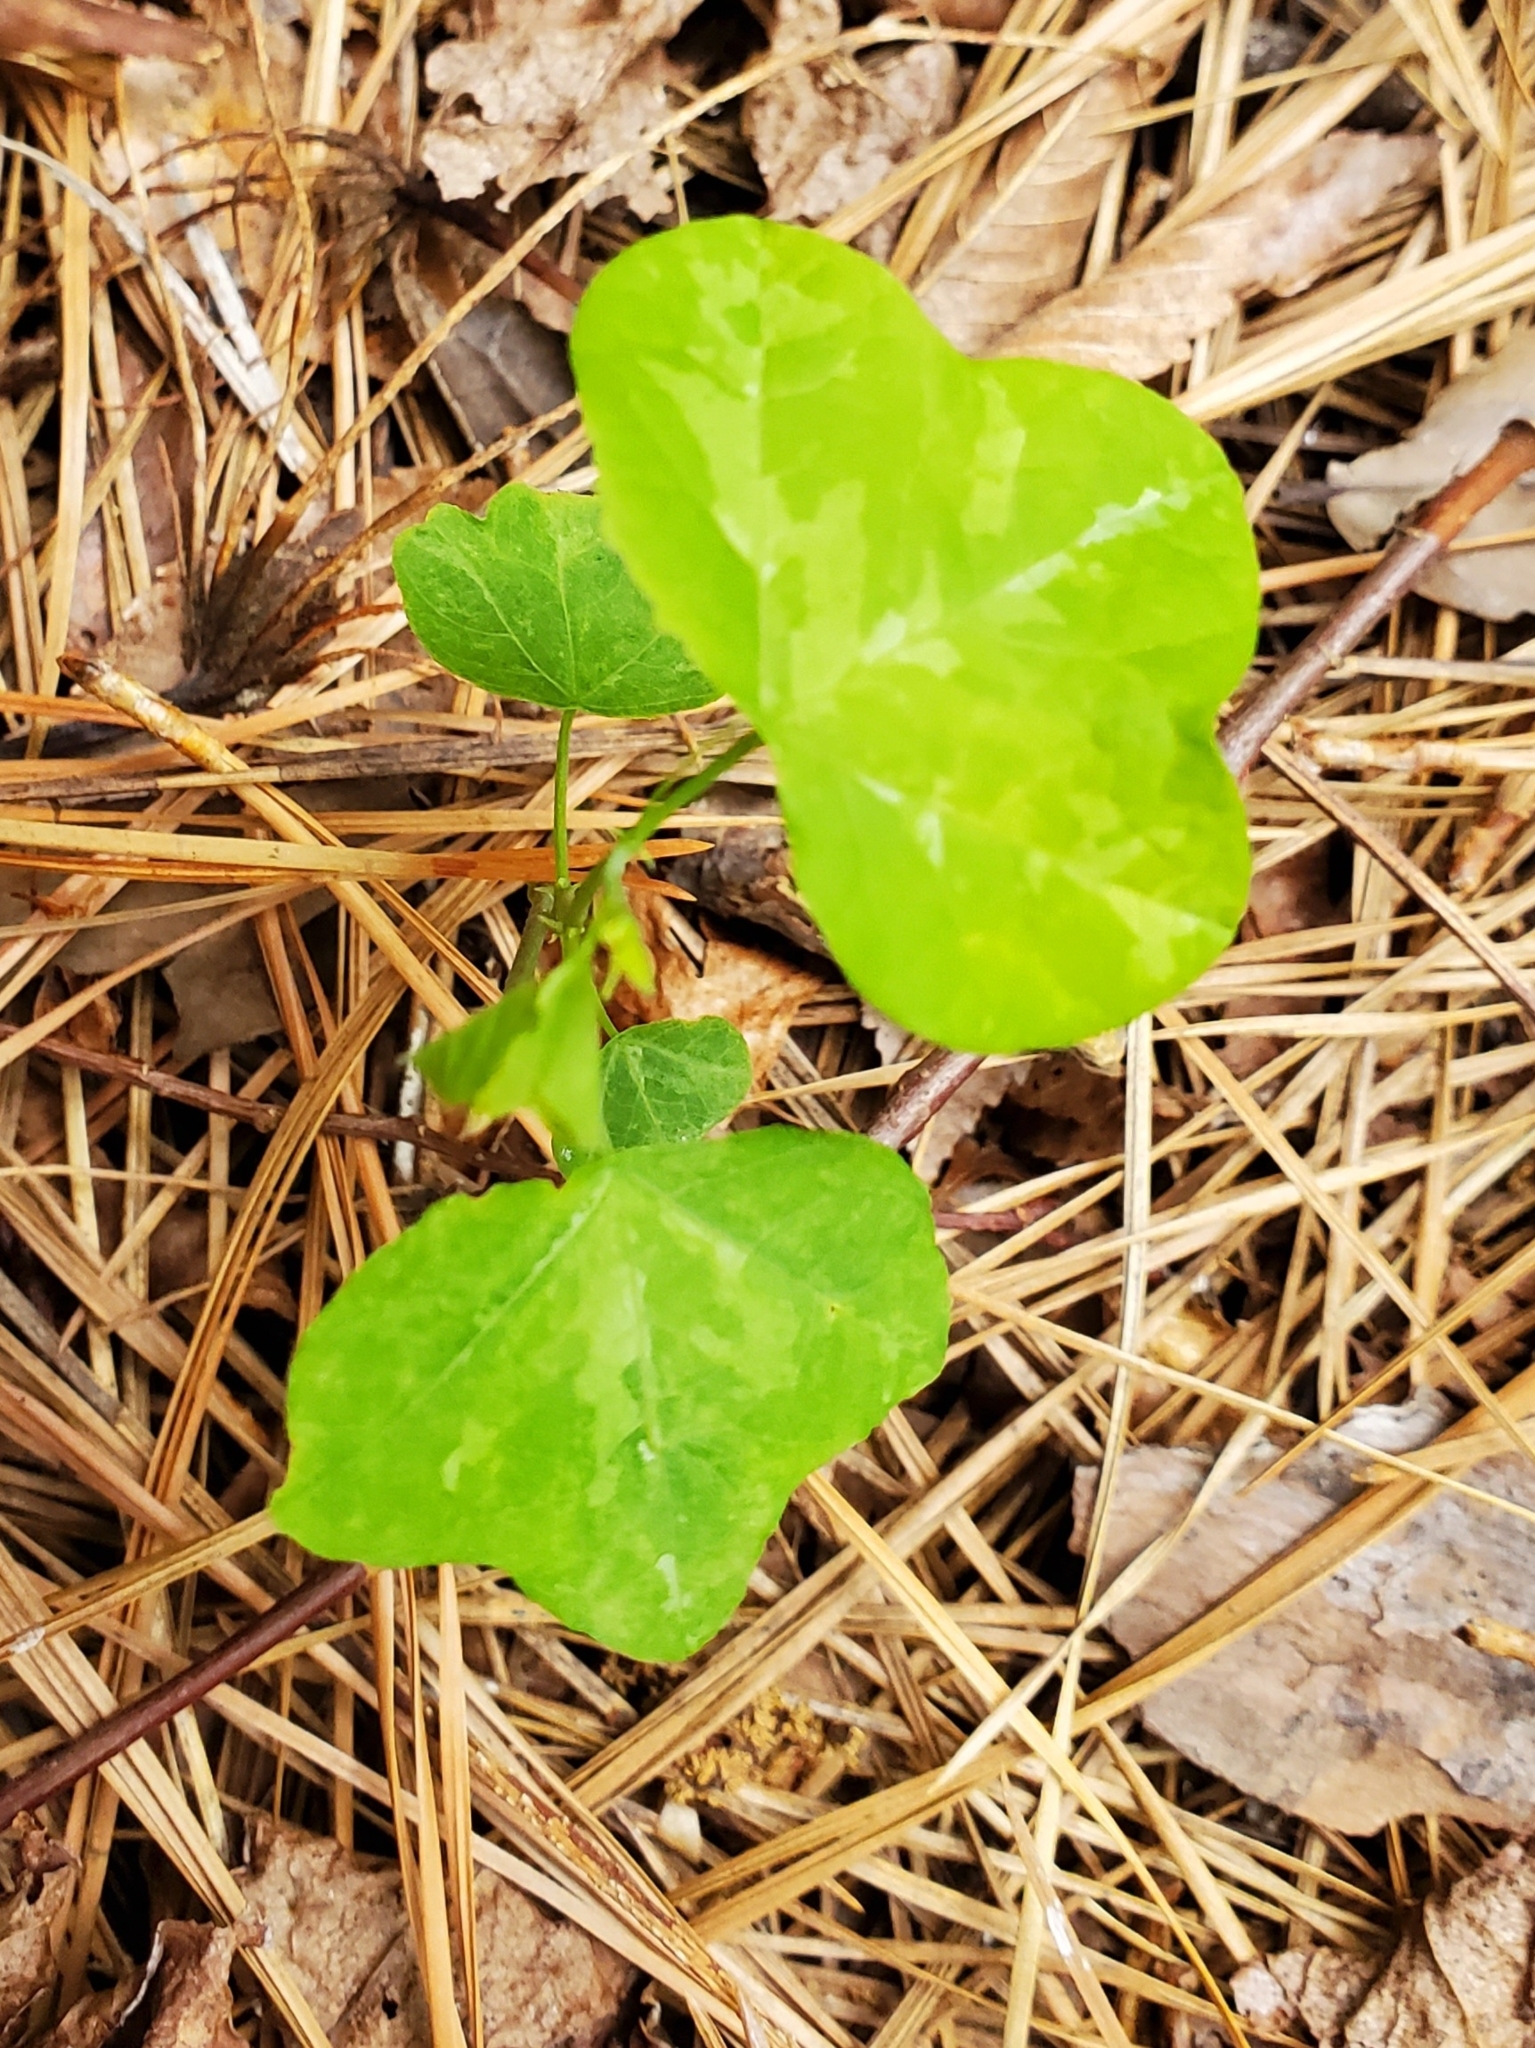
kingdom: Plantae
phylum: Tracheophyta
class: Magnoliopsida
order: Malpighiales
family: Passifloraceae
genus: Passiflora
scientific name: Passiflora lutea
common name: Yellow passionflower
